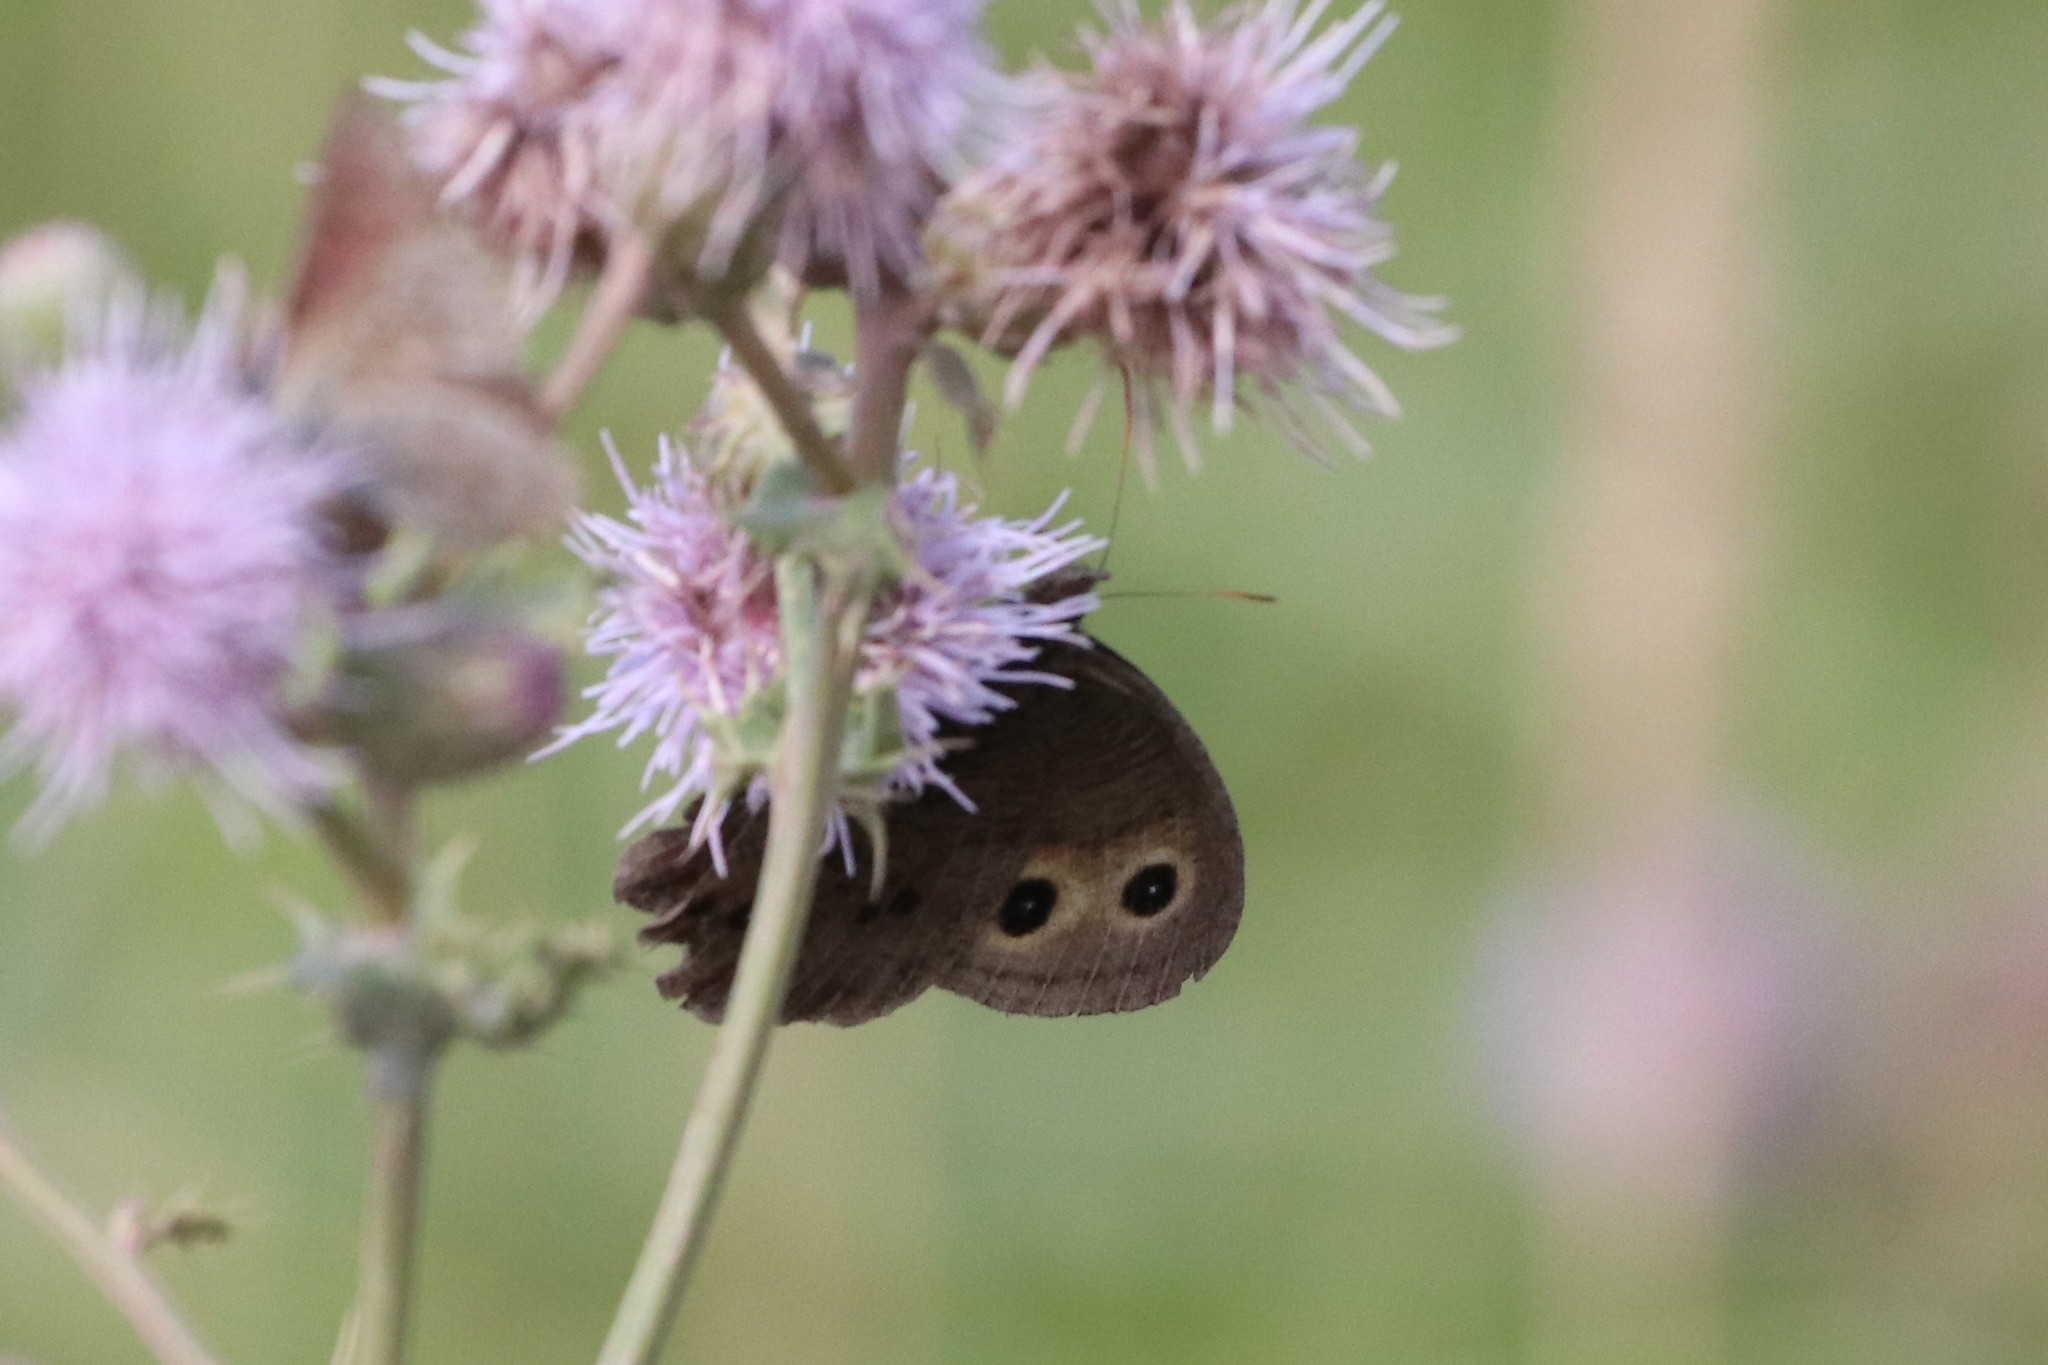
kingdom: Animalia
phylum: Arthropoda
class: Insecta
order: Lepidoptera
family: Nymphalidae
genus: Cercyonis
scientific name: Cercyonis pegala
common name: Common wood-nymph
